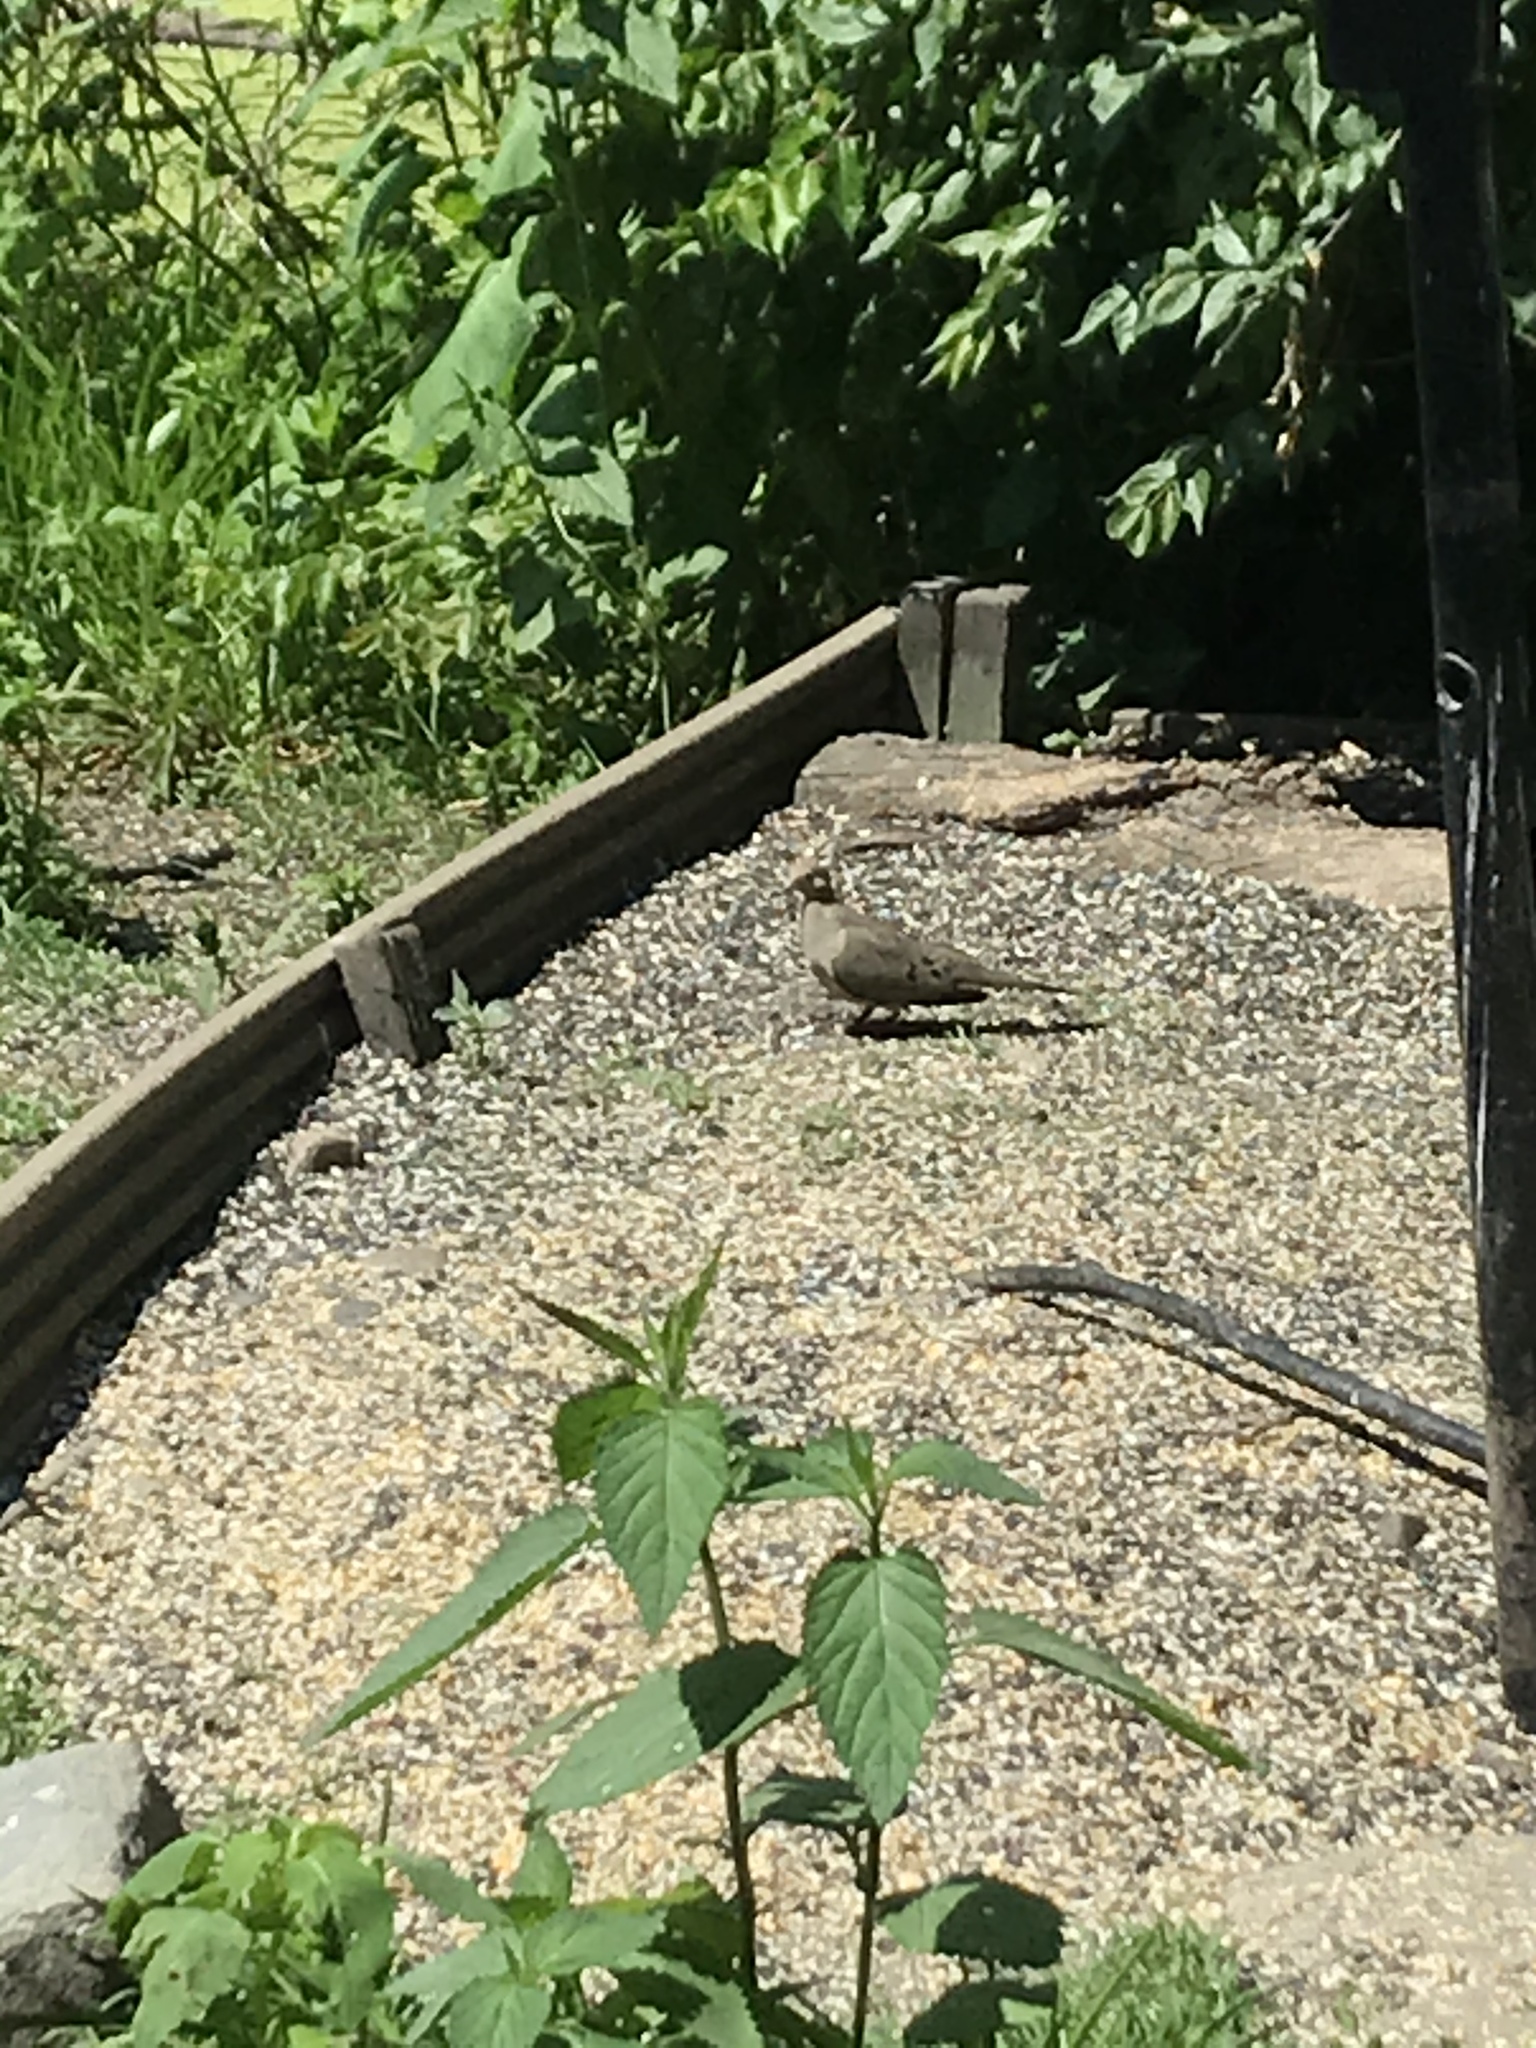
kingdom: Animalia
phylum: Chordata
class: Aves
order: Columbiformes
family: Columbidae
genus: Zenaida
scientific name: Zenaida macroura
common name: Mourning dove
